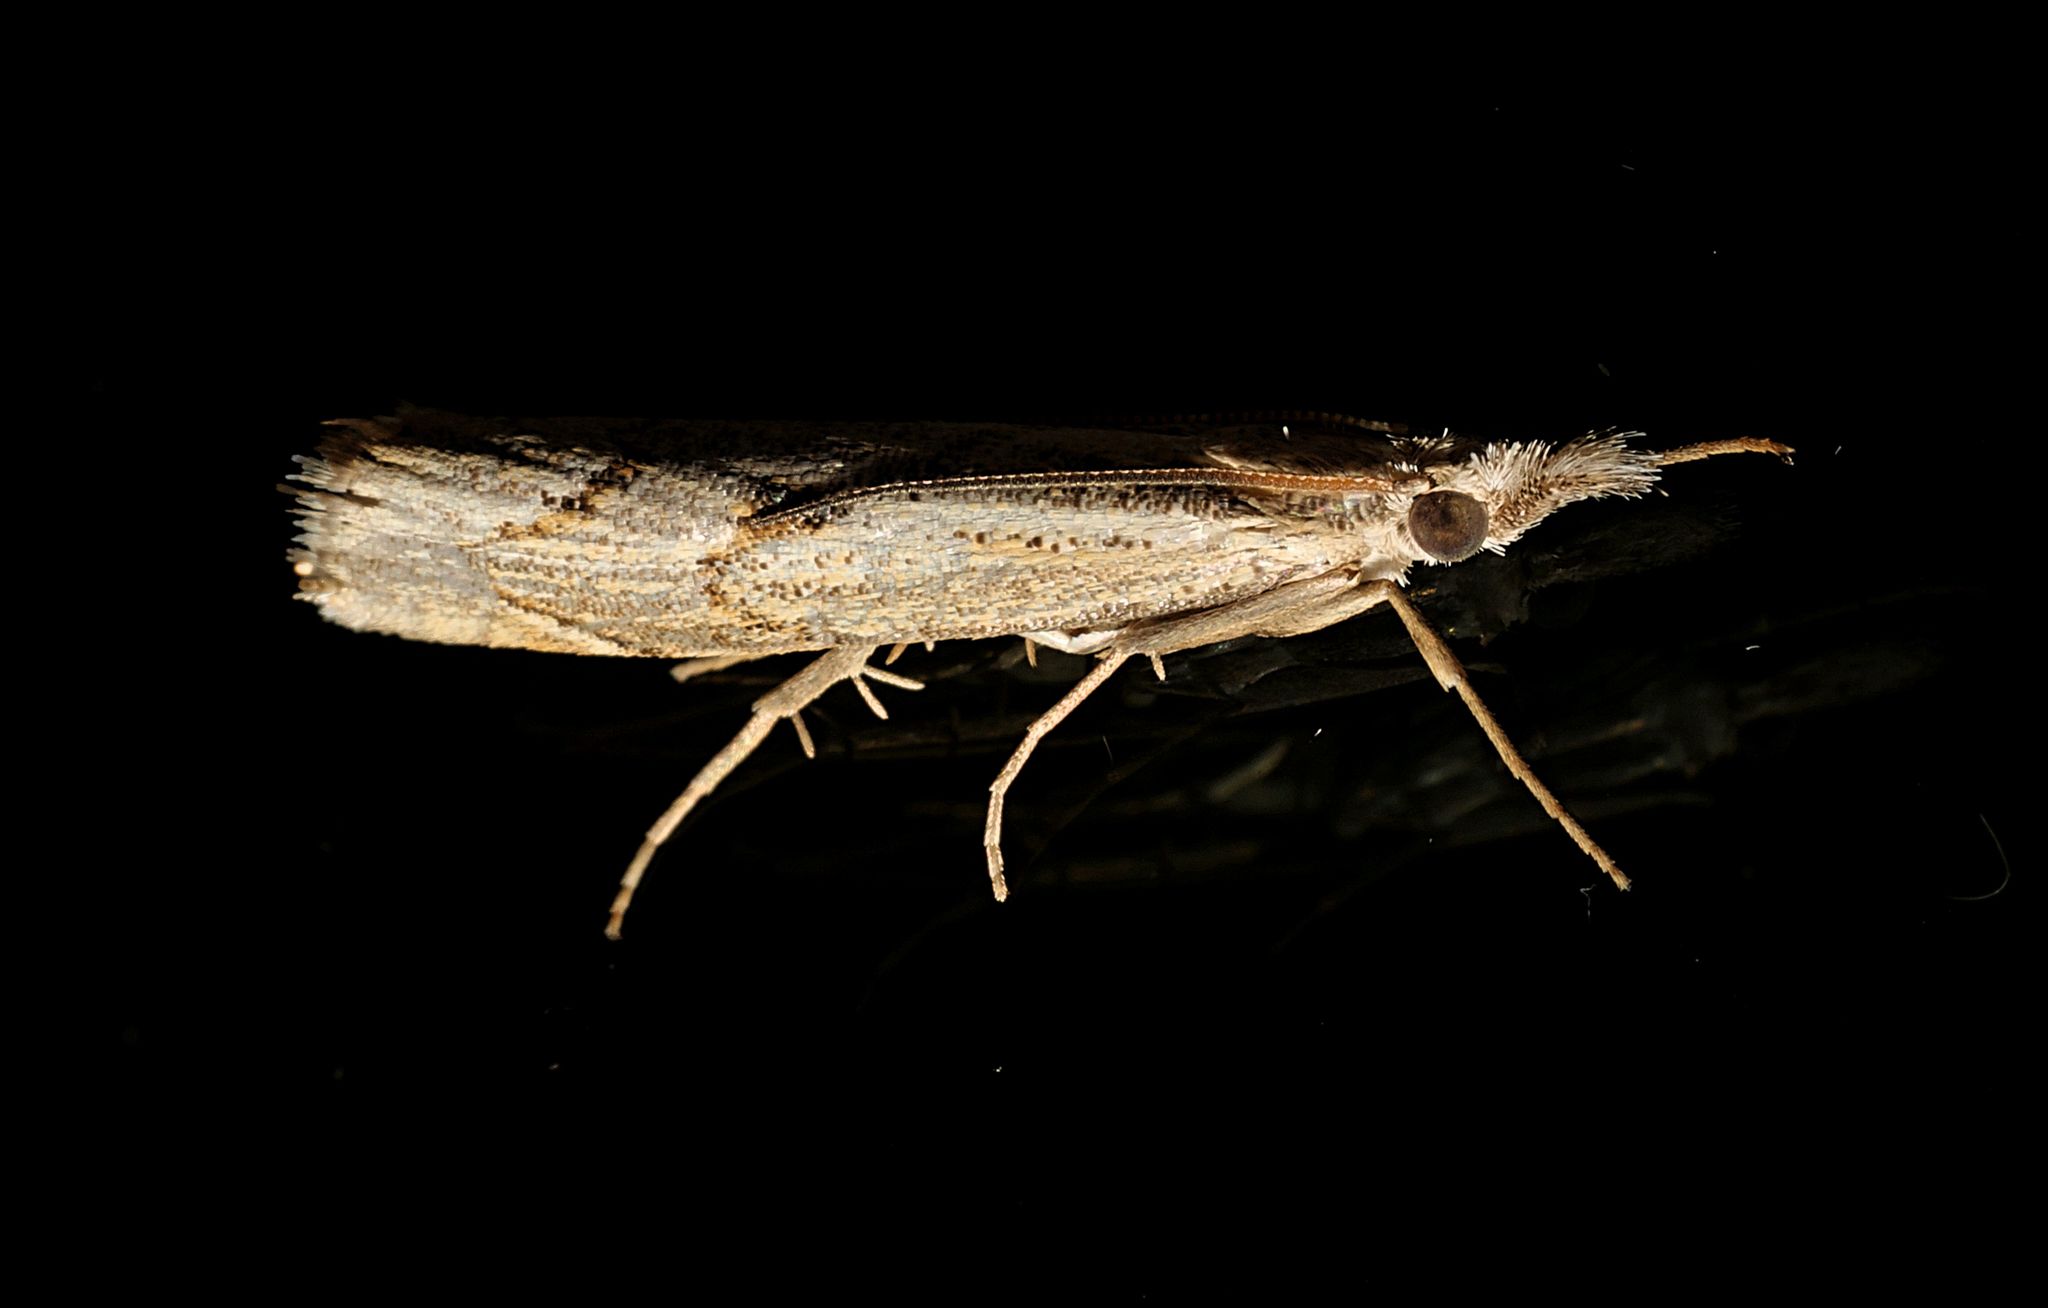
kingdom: Animalia
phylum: Arthropoda
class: Insecta
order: Lepidoptera
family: Crambidae
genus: Agriphila
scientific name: Agriphila geniculea
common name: Elbow-stripe grass-veneer
